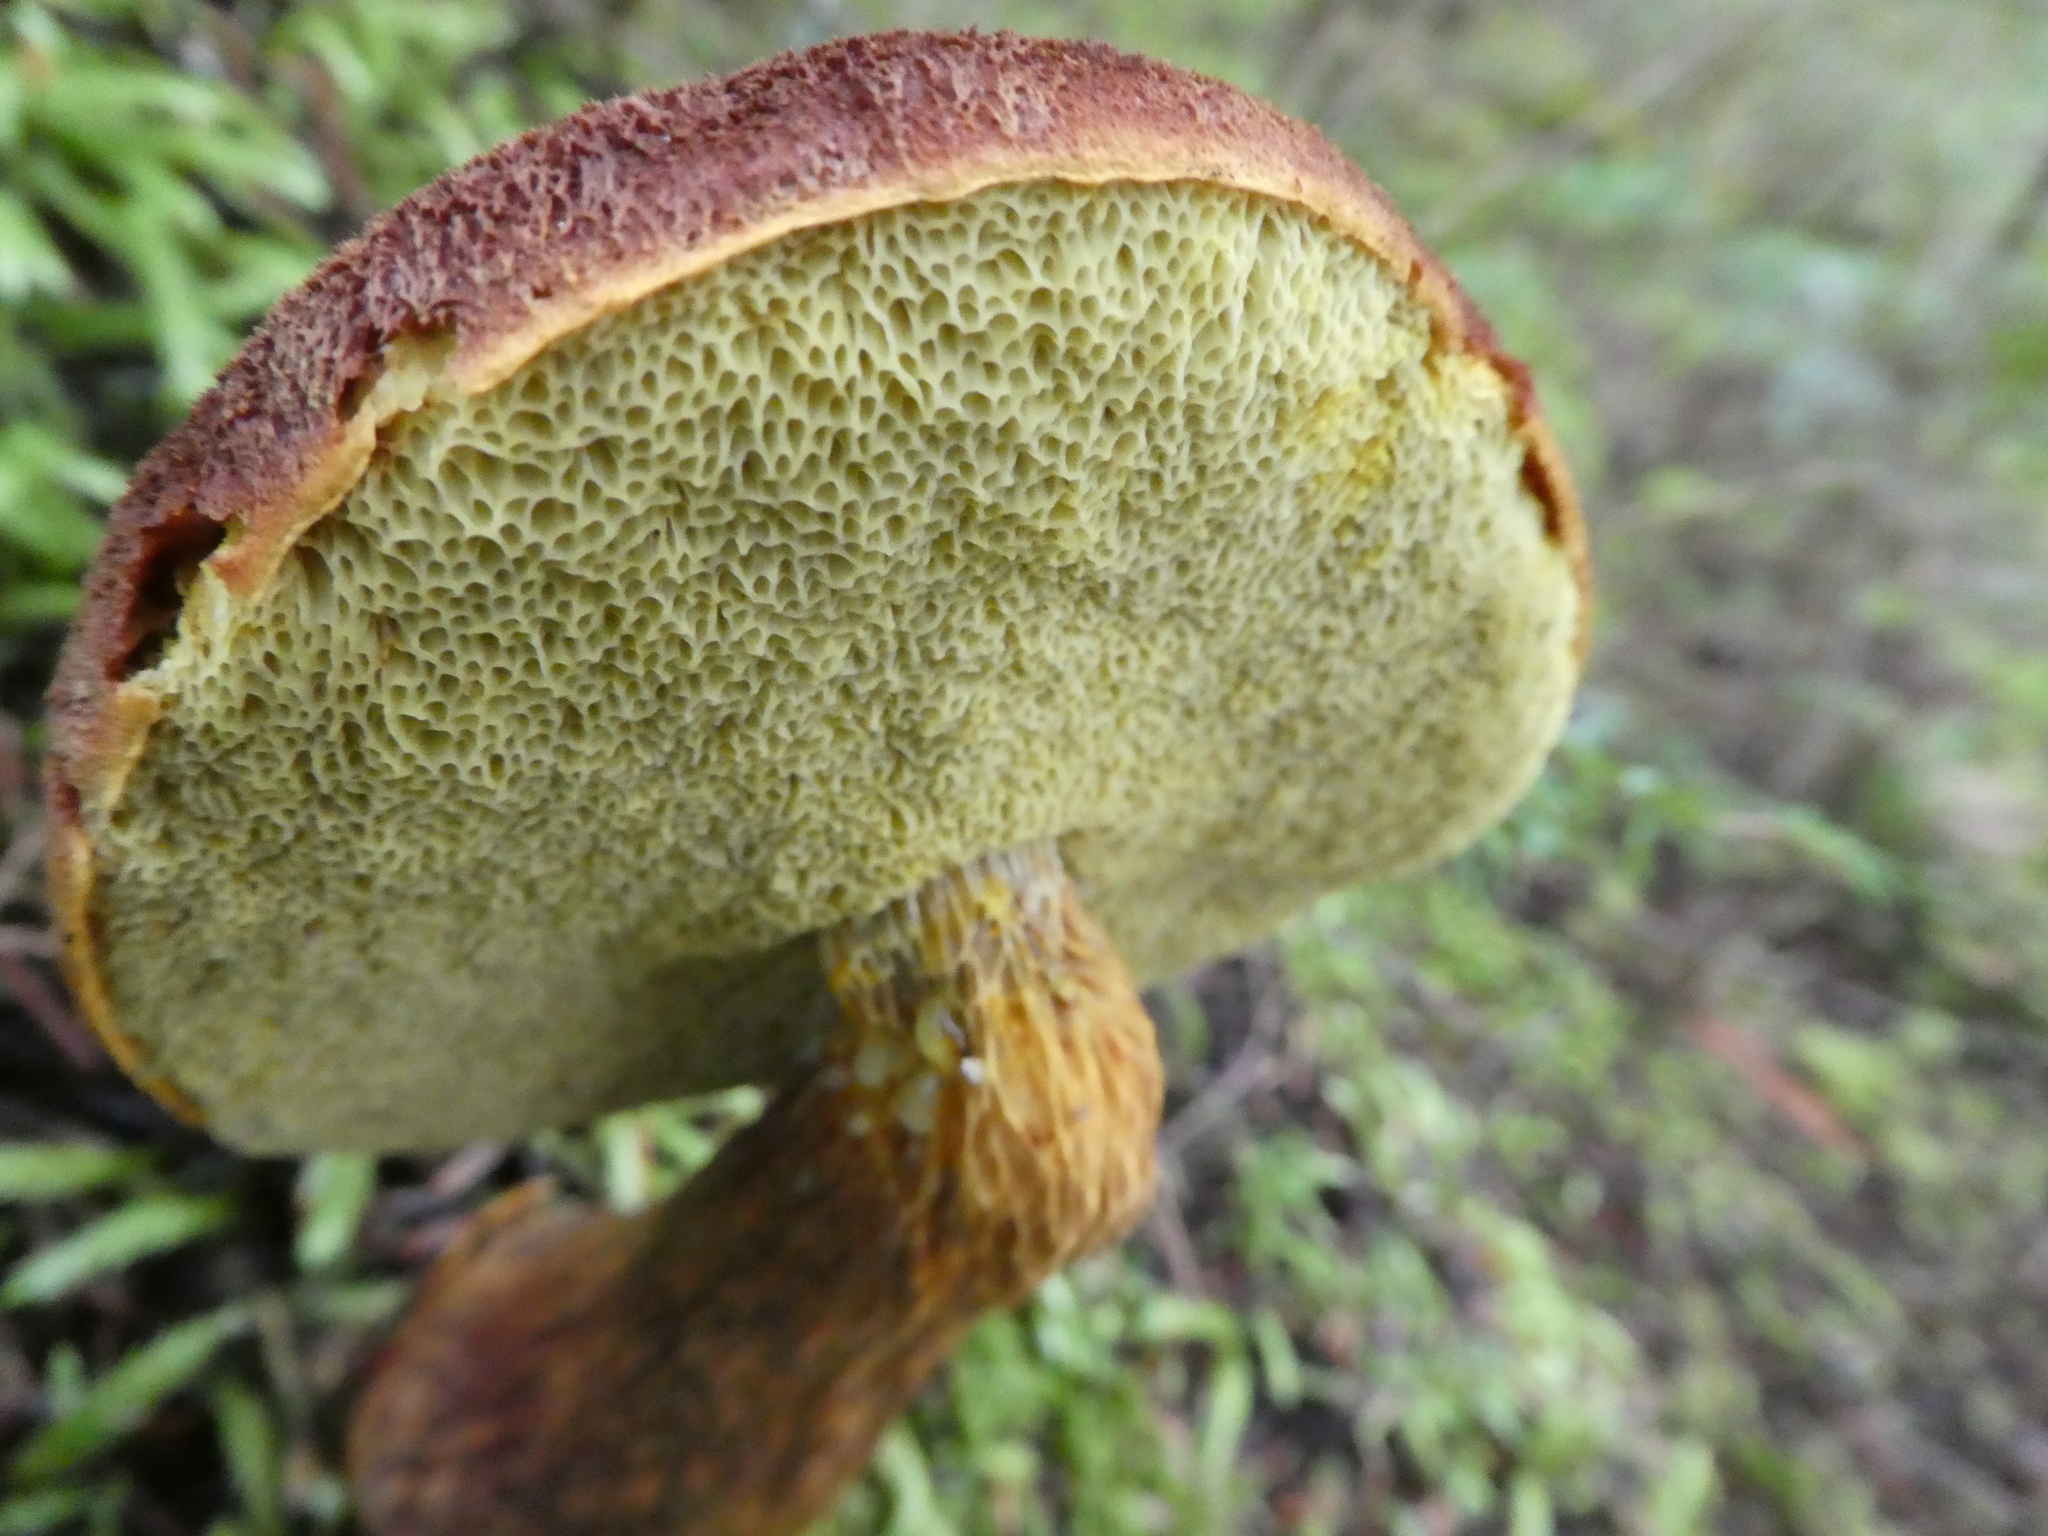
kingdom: Fungi
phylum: Basidiomycota
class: Agaricomycetes
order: Boletales
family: Boletaceae
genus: Aureoboletus
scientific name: Aureoboletus mirabilis
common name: Admirable bolete
